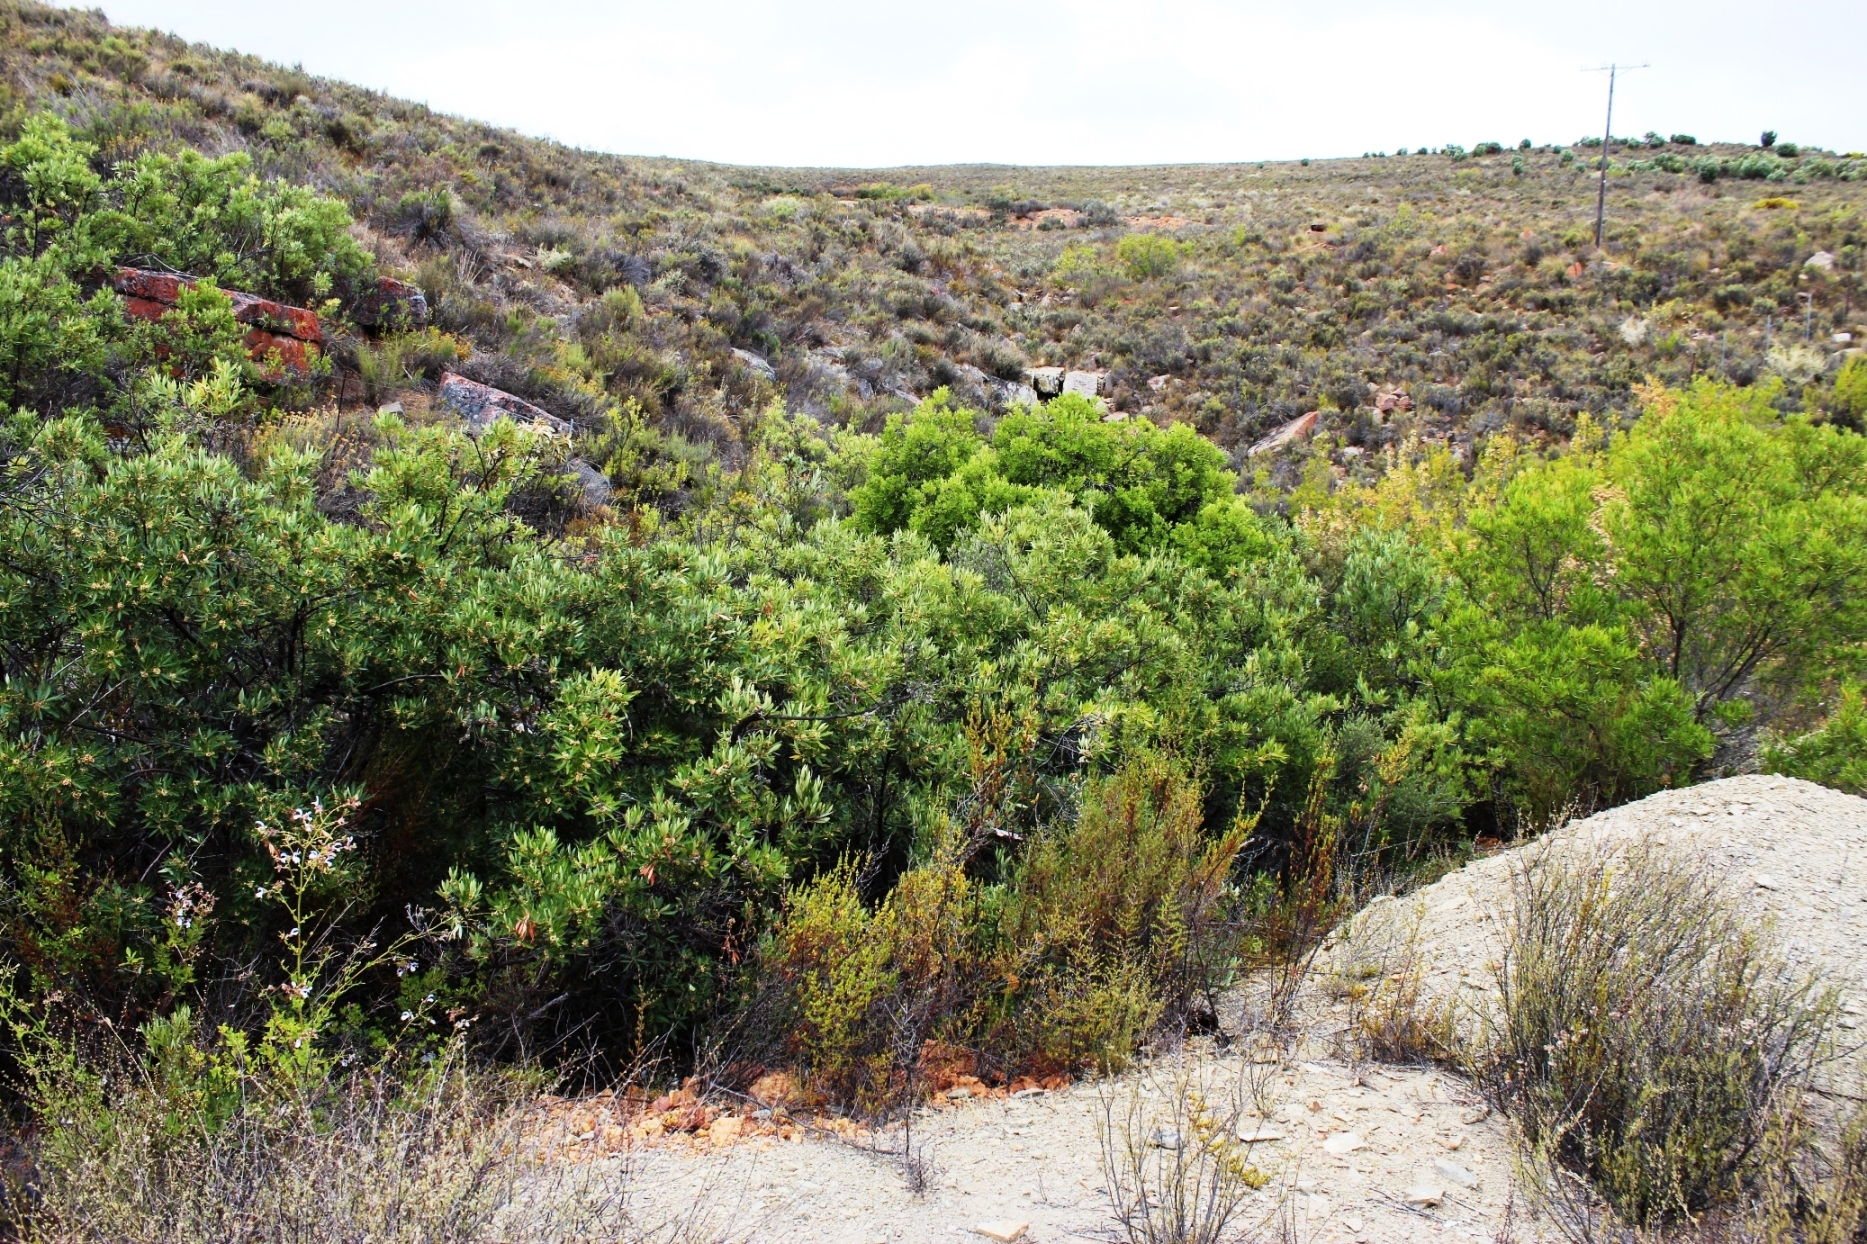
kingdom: Plantae
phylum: Tracheophyta
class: Magnoliopsida
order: Sapindales
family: Anacardiaceae
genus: Searsia
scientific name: Searsia angustifolia
